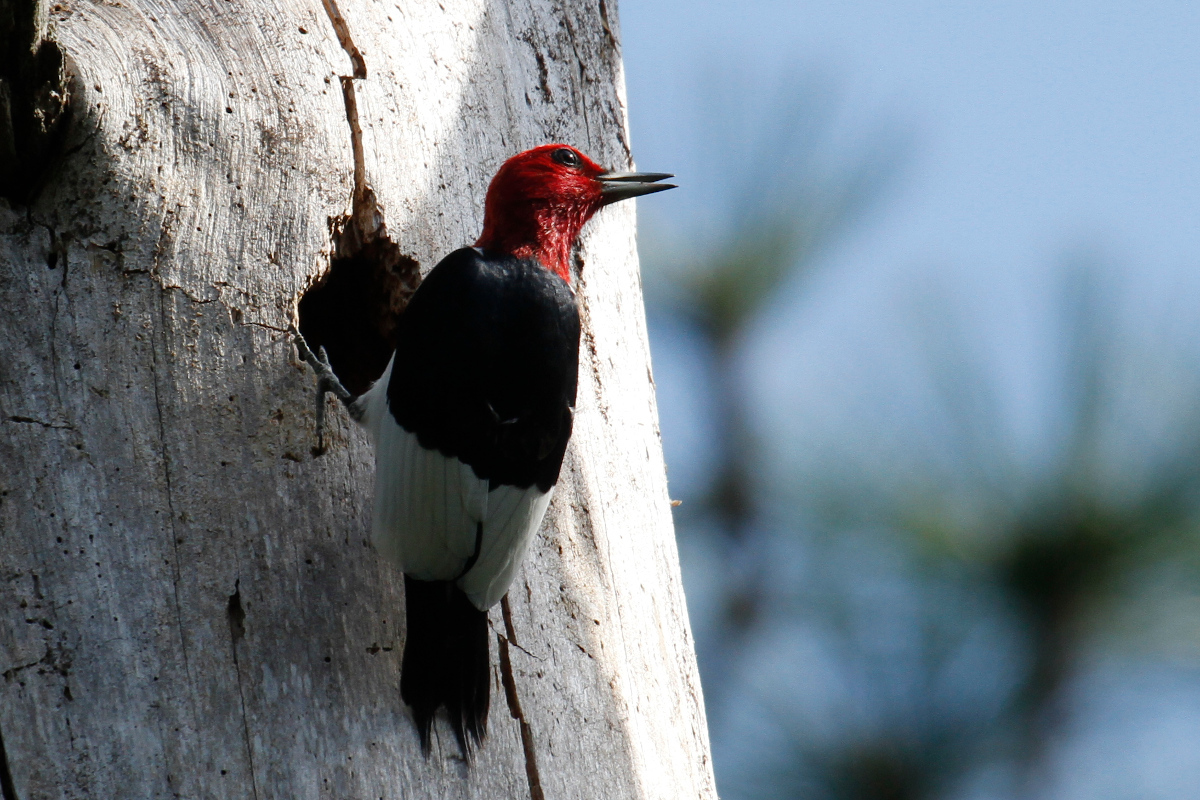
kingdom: Animalia
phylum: Chordata
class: Aves
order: Piciformes
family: Picidae
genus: Melanerpes
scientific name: Melanerpes erythrocephalus
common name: Red-headed woodpecker
